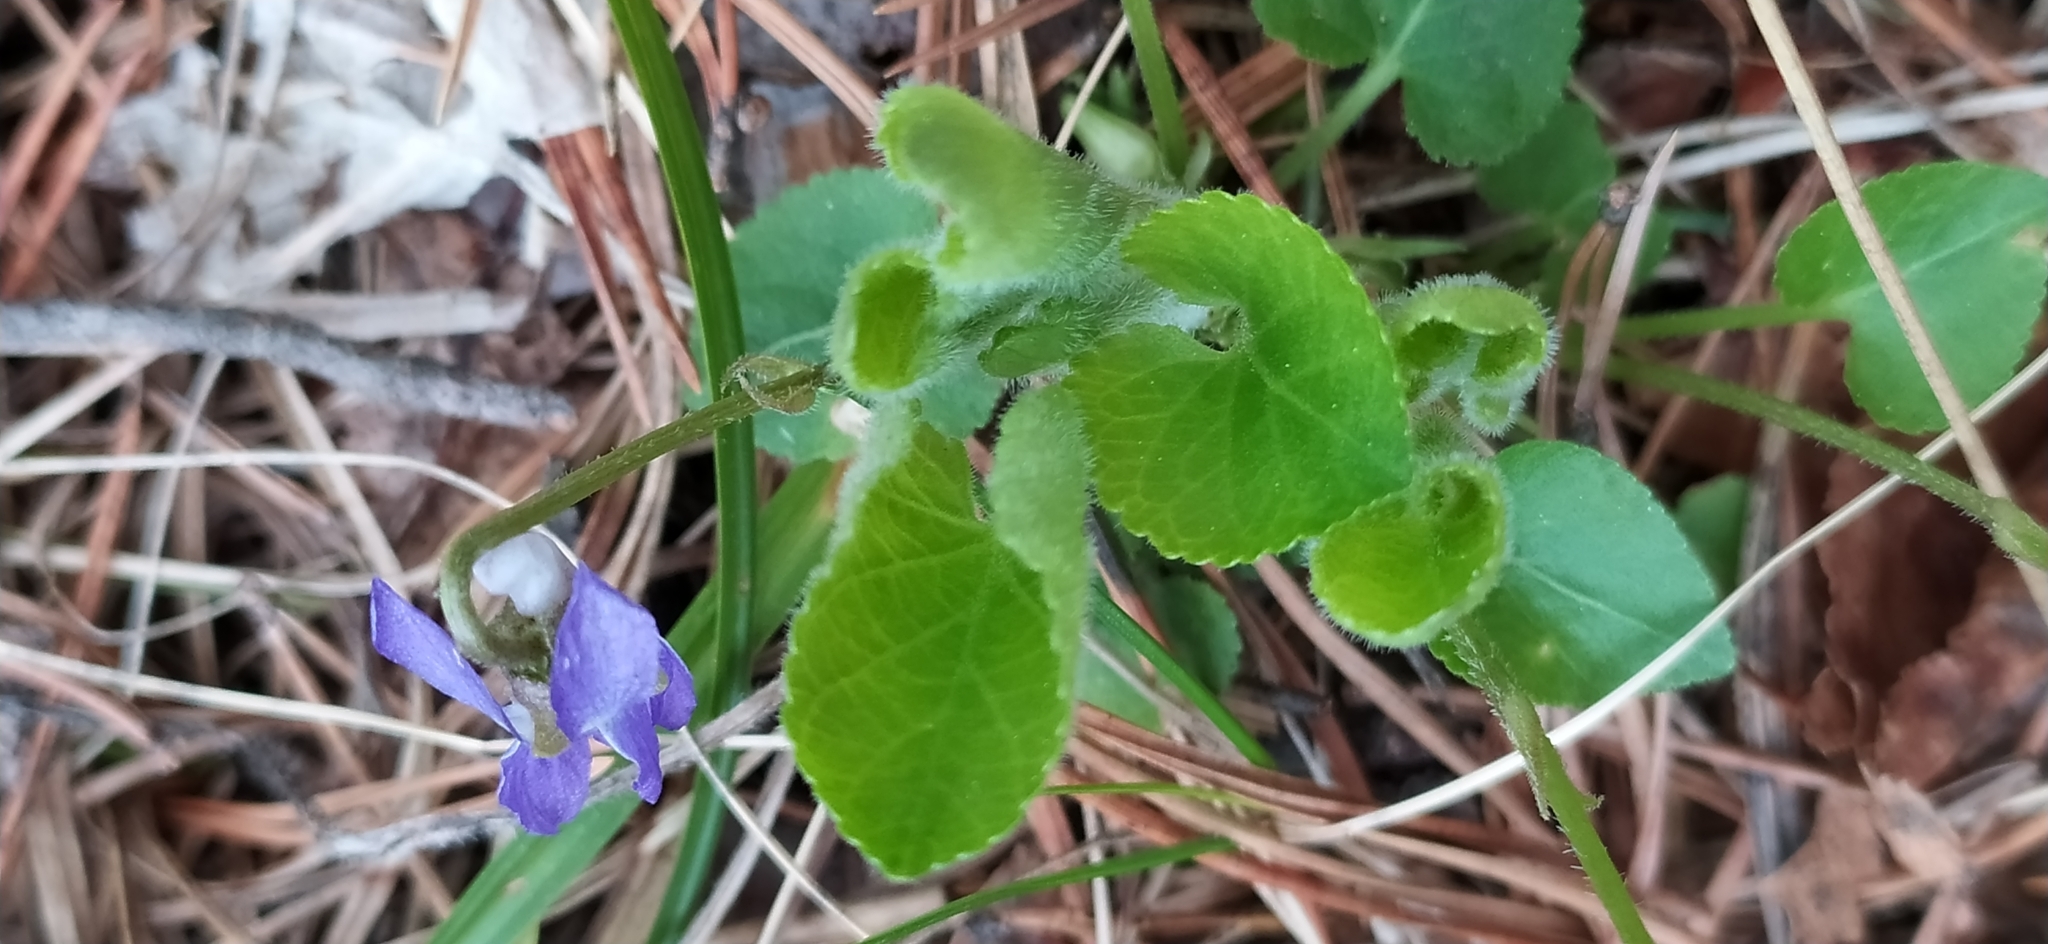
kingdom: Plantae
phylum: Tracheophyta
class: Magnoliopsida
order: Malpighiales
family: Violaceae
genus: Viola
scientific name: Viola collina
